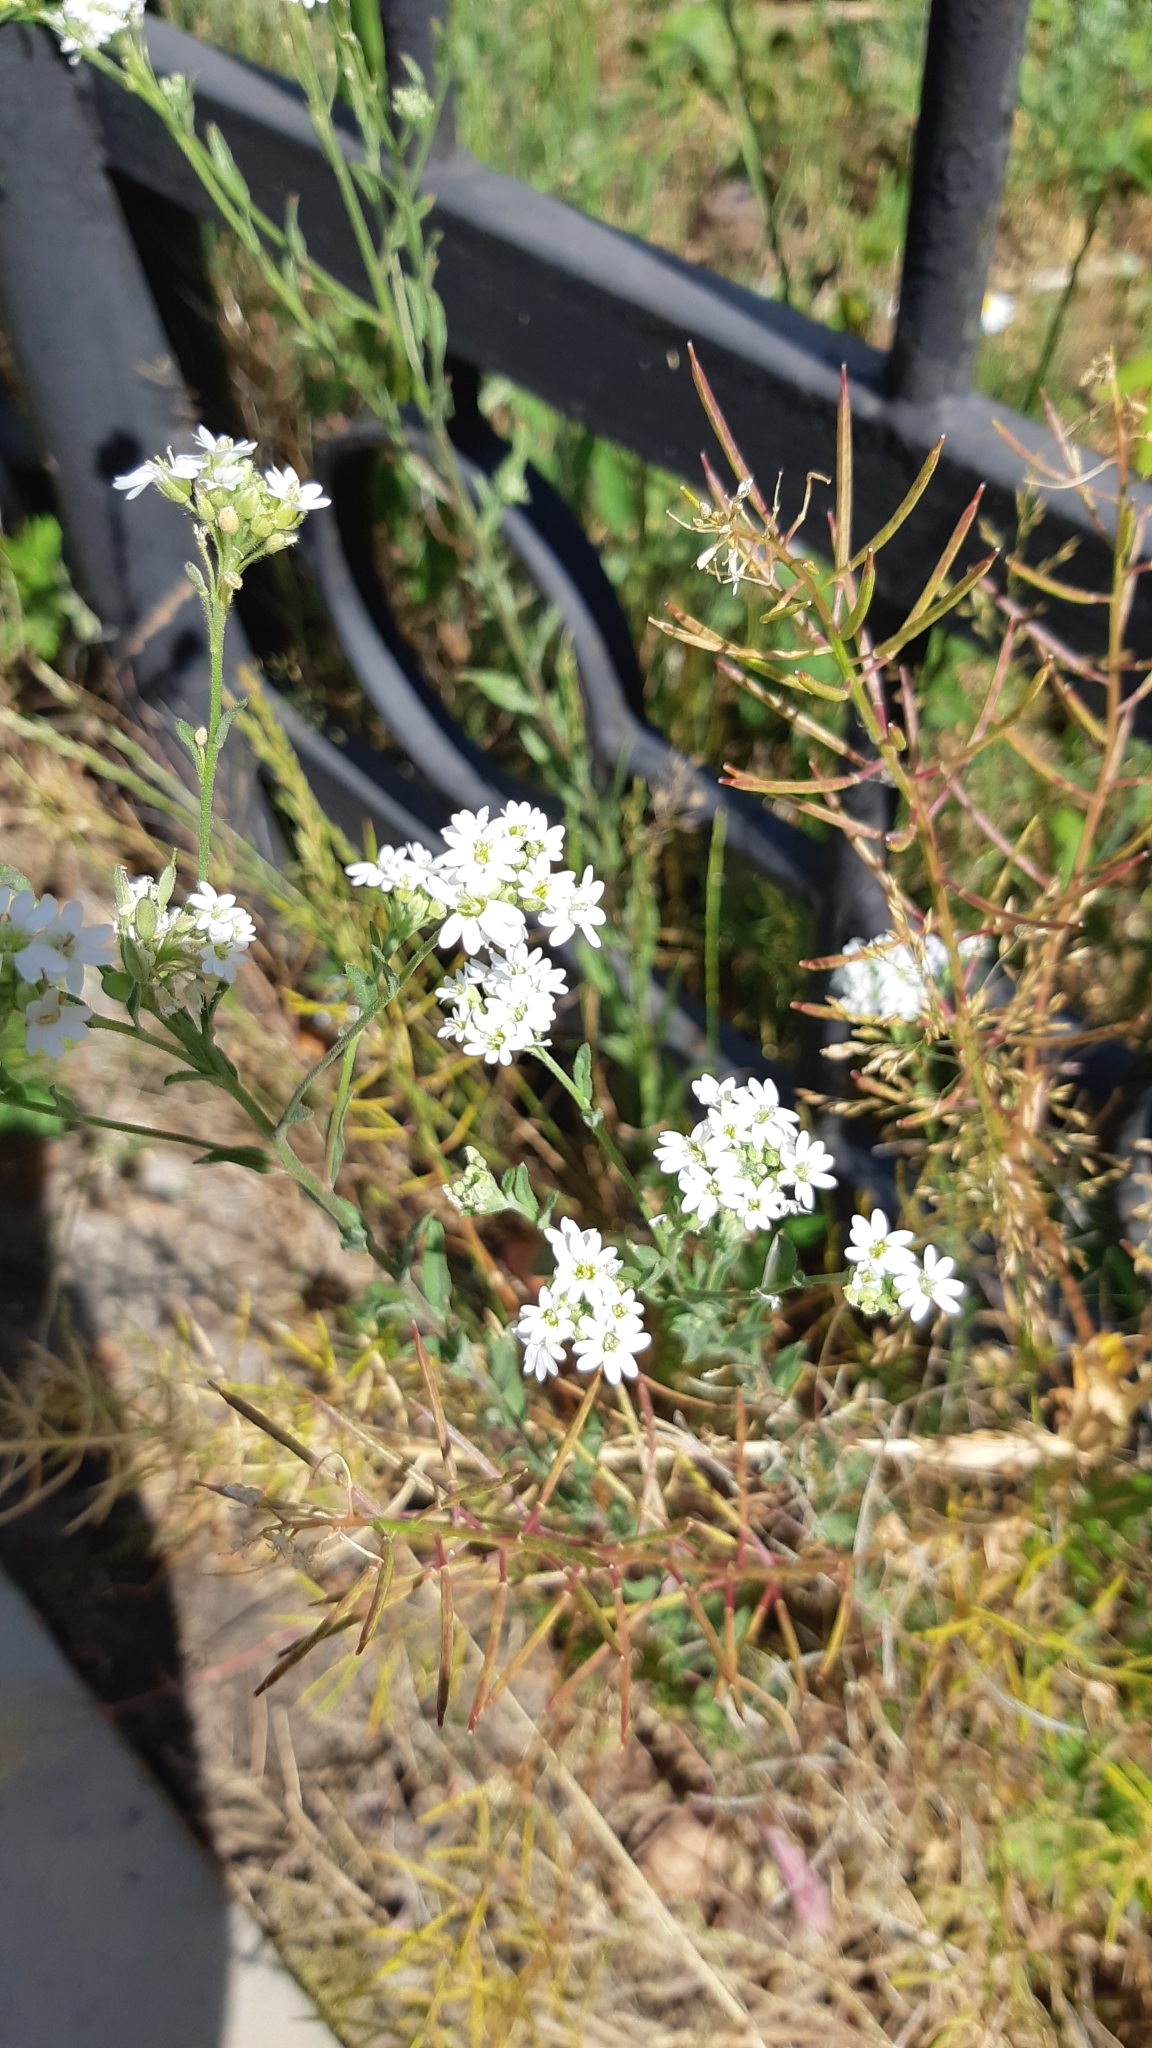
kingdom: Plantae
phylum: Tracheophyta
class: Magnoliopsida
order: Brassicales
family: Brassicaceae
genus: Berteroa
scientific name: Berteroa incana
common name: Hoary alison
